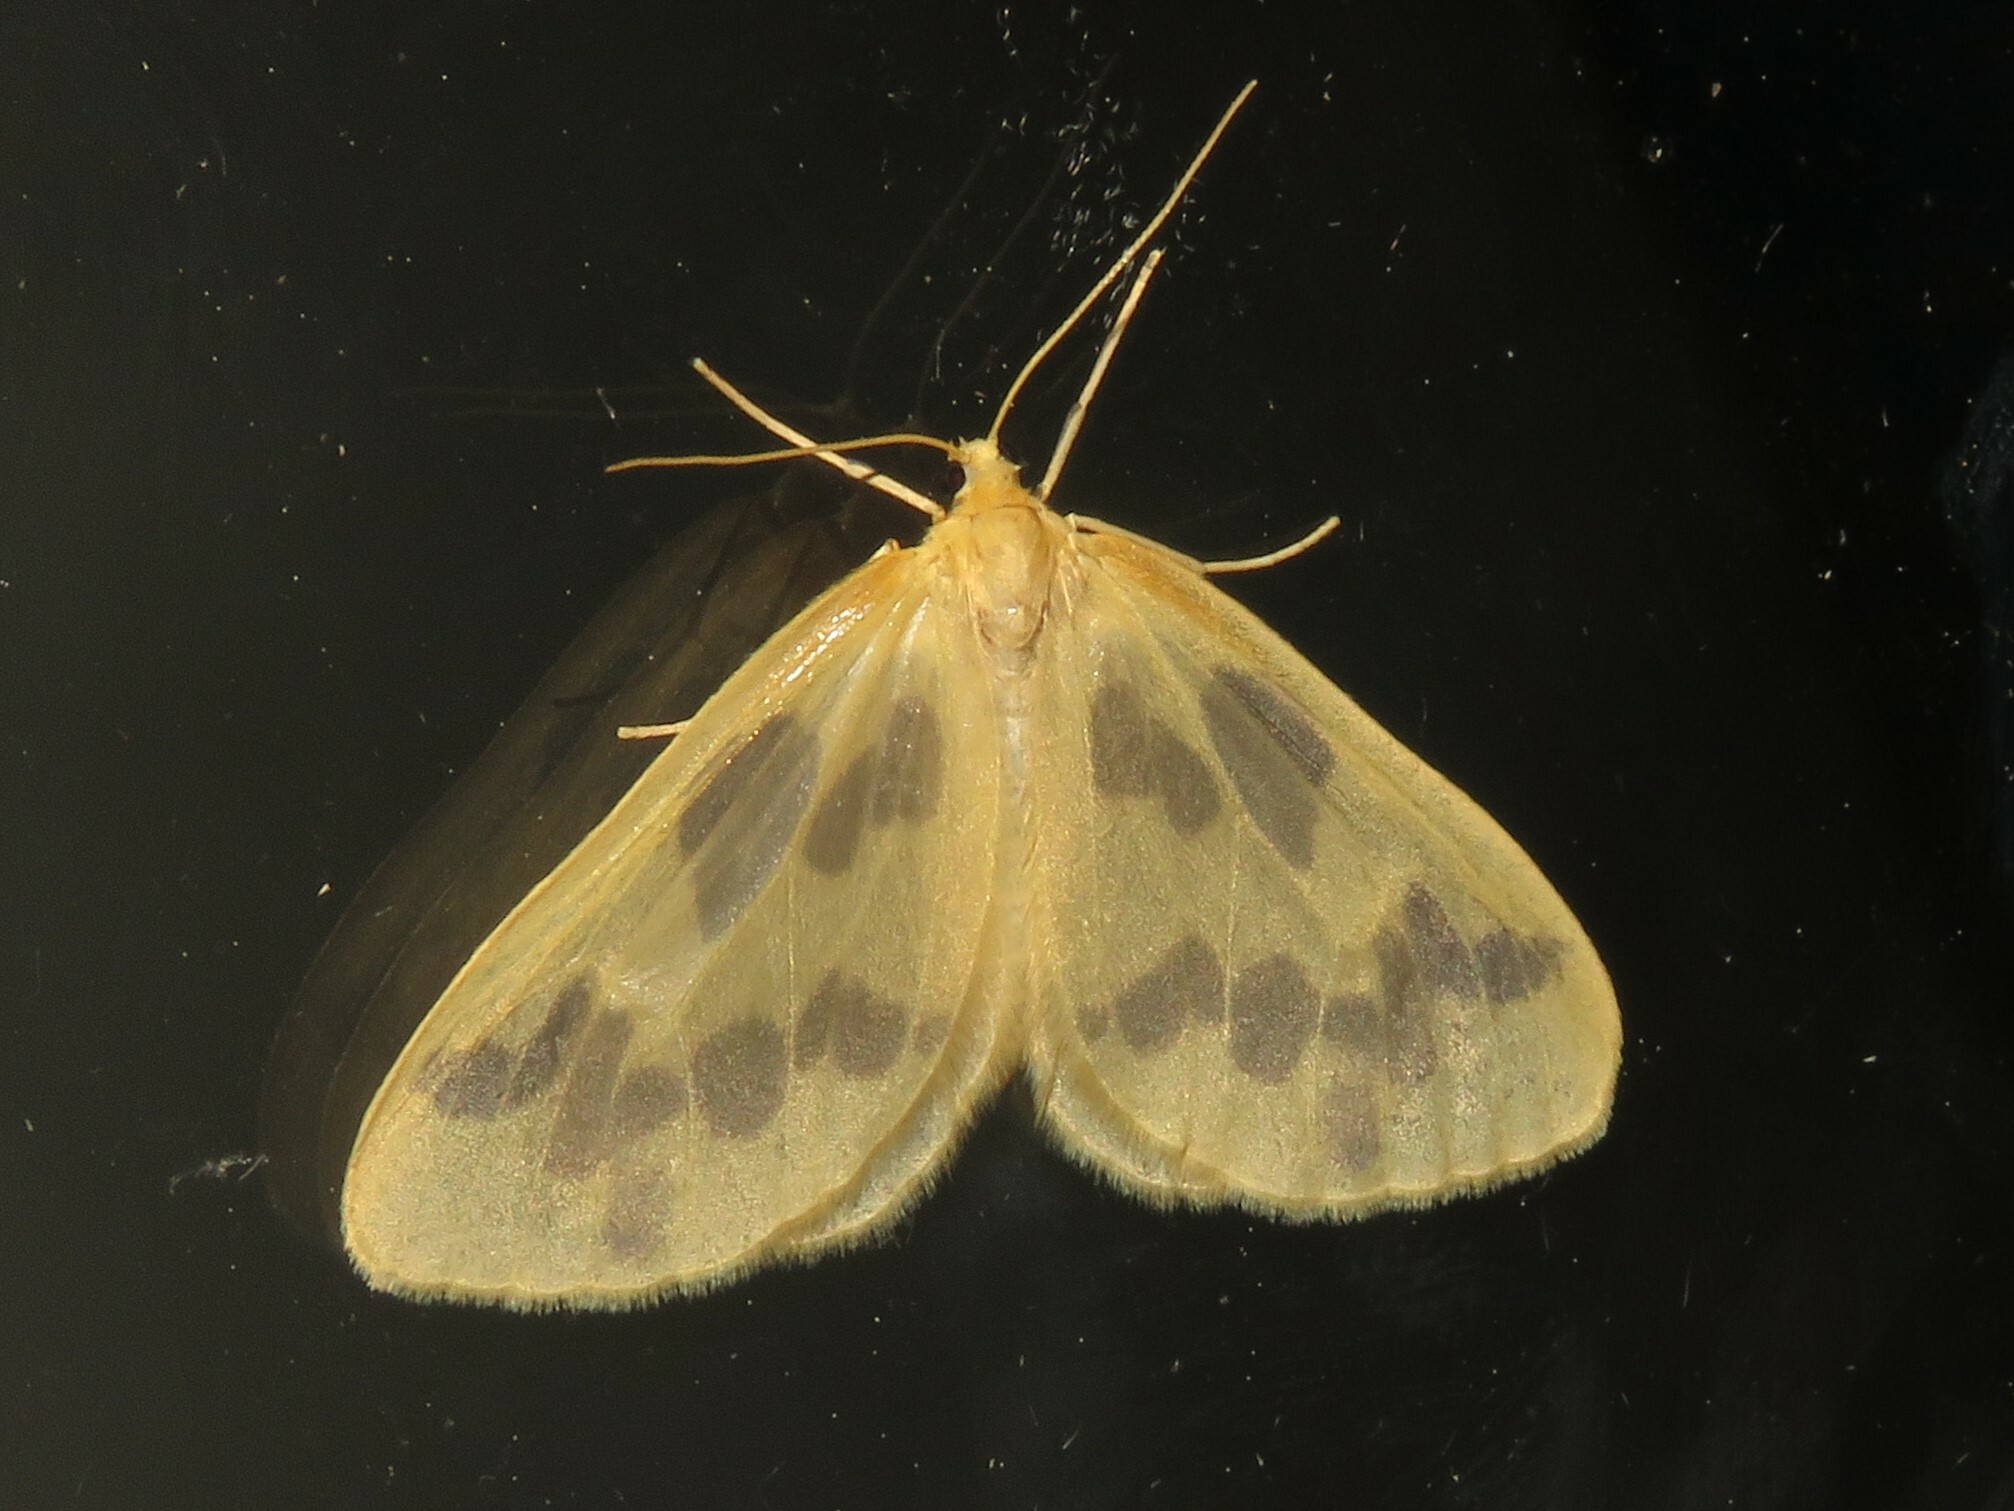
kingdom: Animalia
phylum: Arthropoda
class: Insecta
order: Lepidoptera
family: Geometridae
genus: Eubaphe
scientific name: Eubaphe mendica
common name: Beggar
